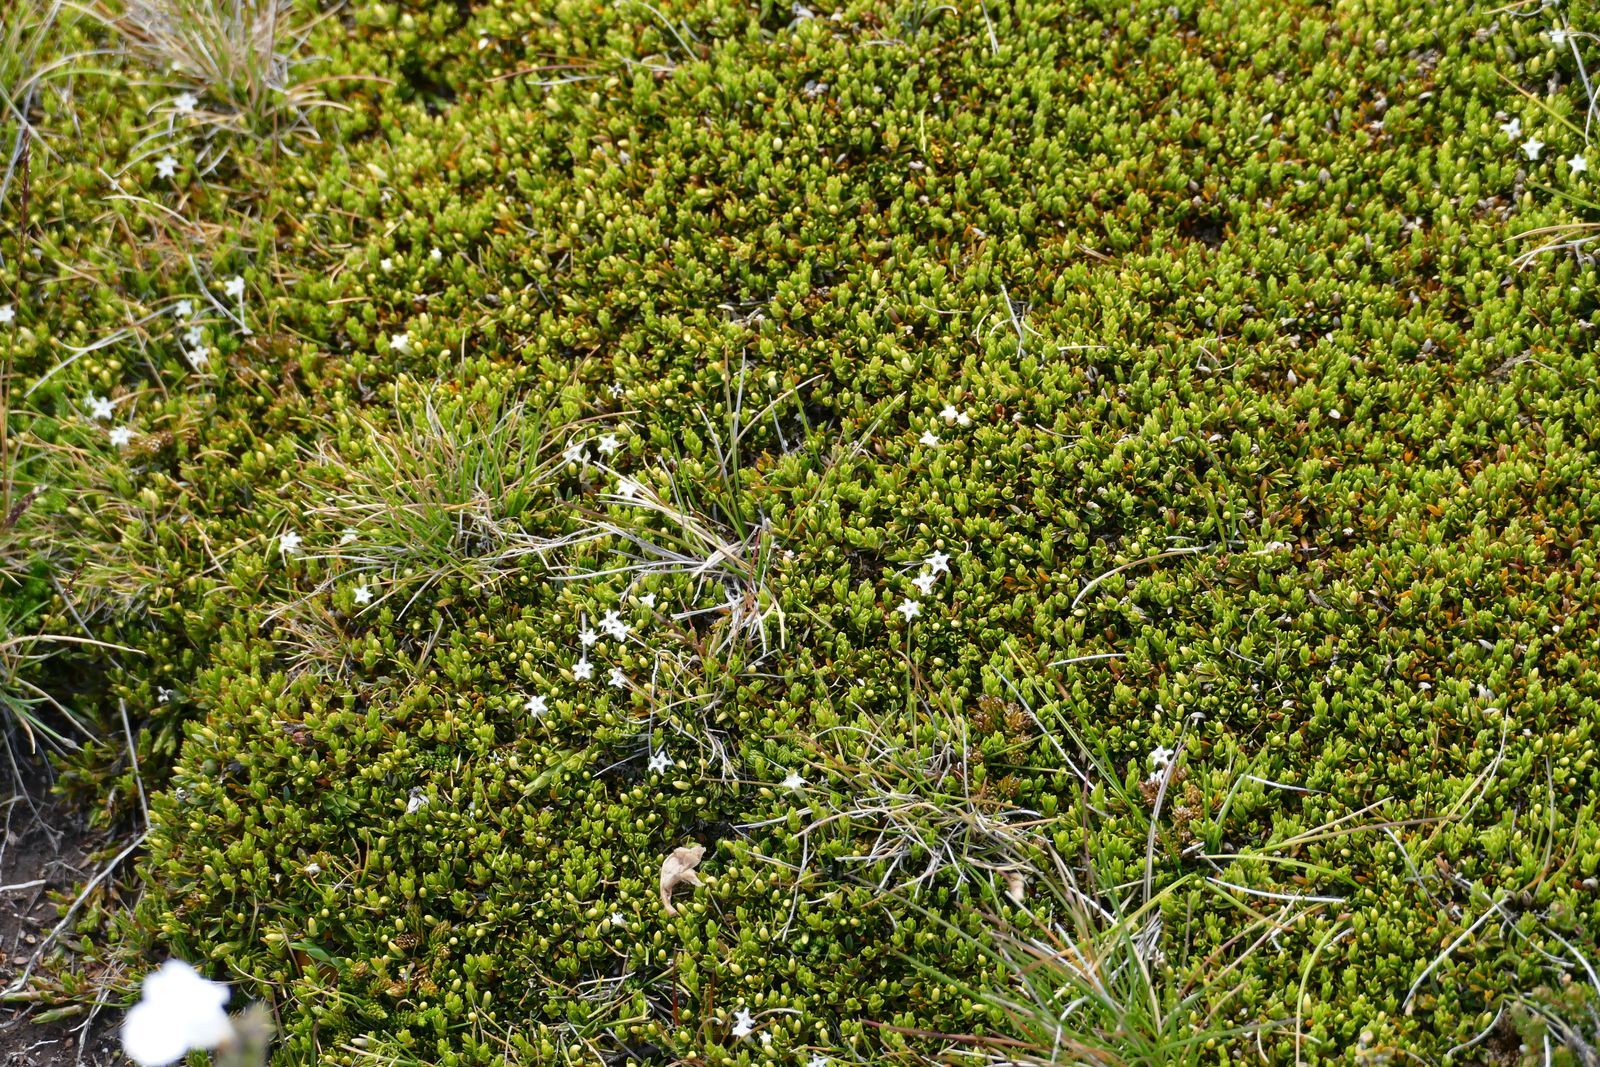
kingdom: Plantae
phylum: Tracheophyta
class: Magnoliopsida
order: Ericales
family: Ericaceae
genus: Pentachondra
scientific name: Pentachondra pumila
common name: Carpet-heath
